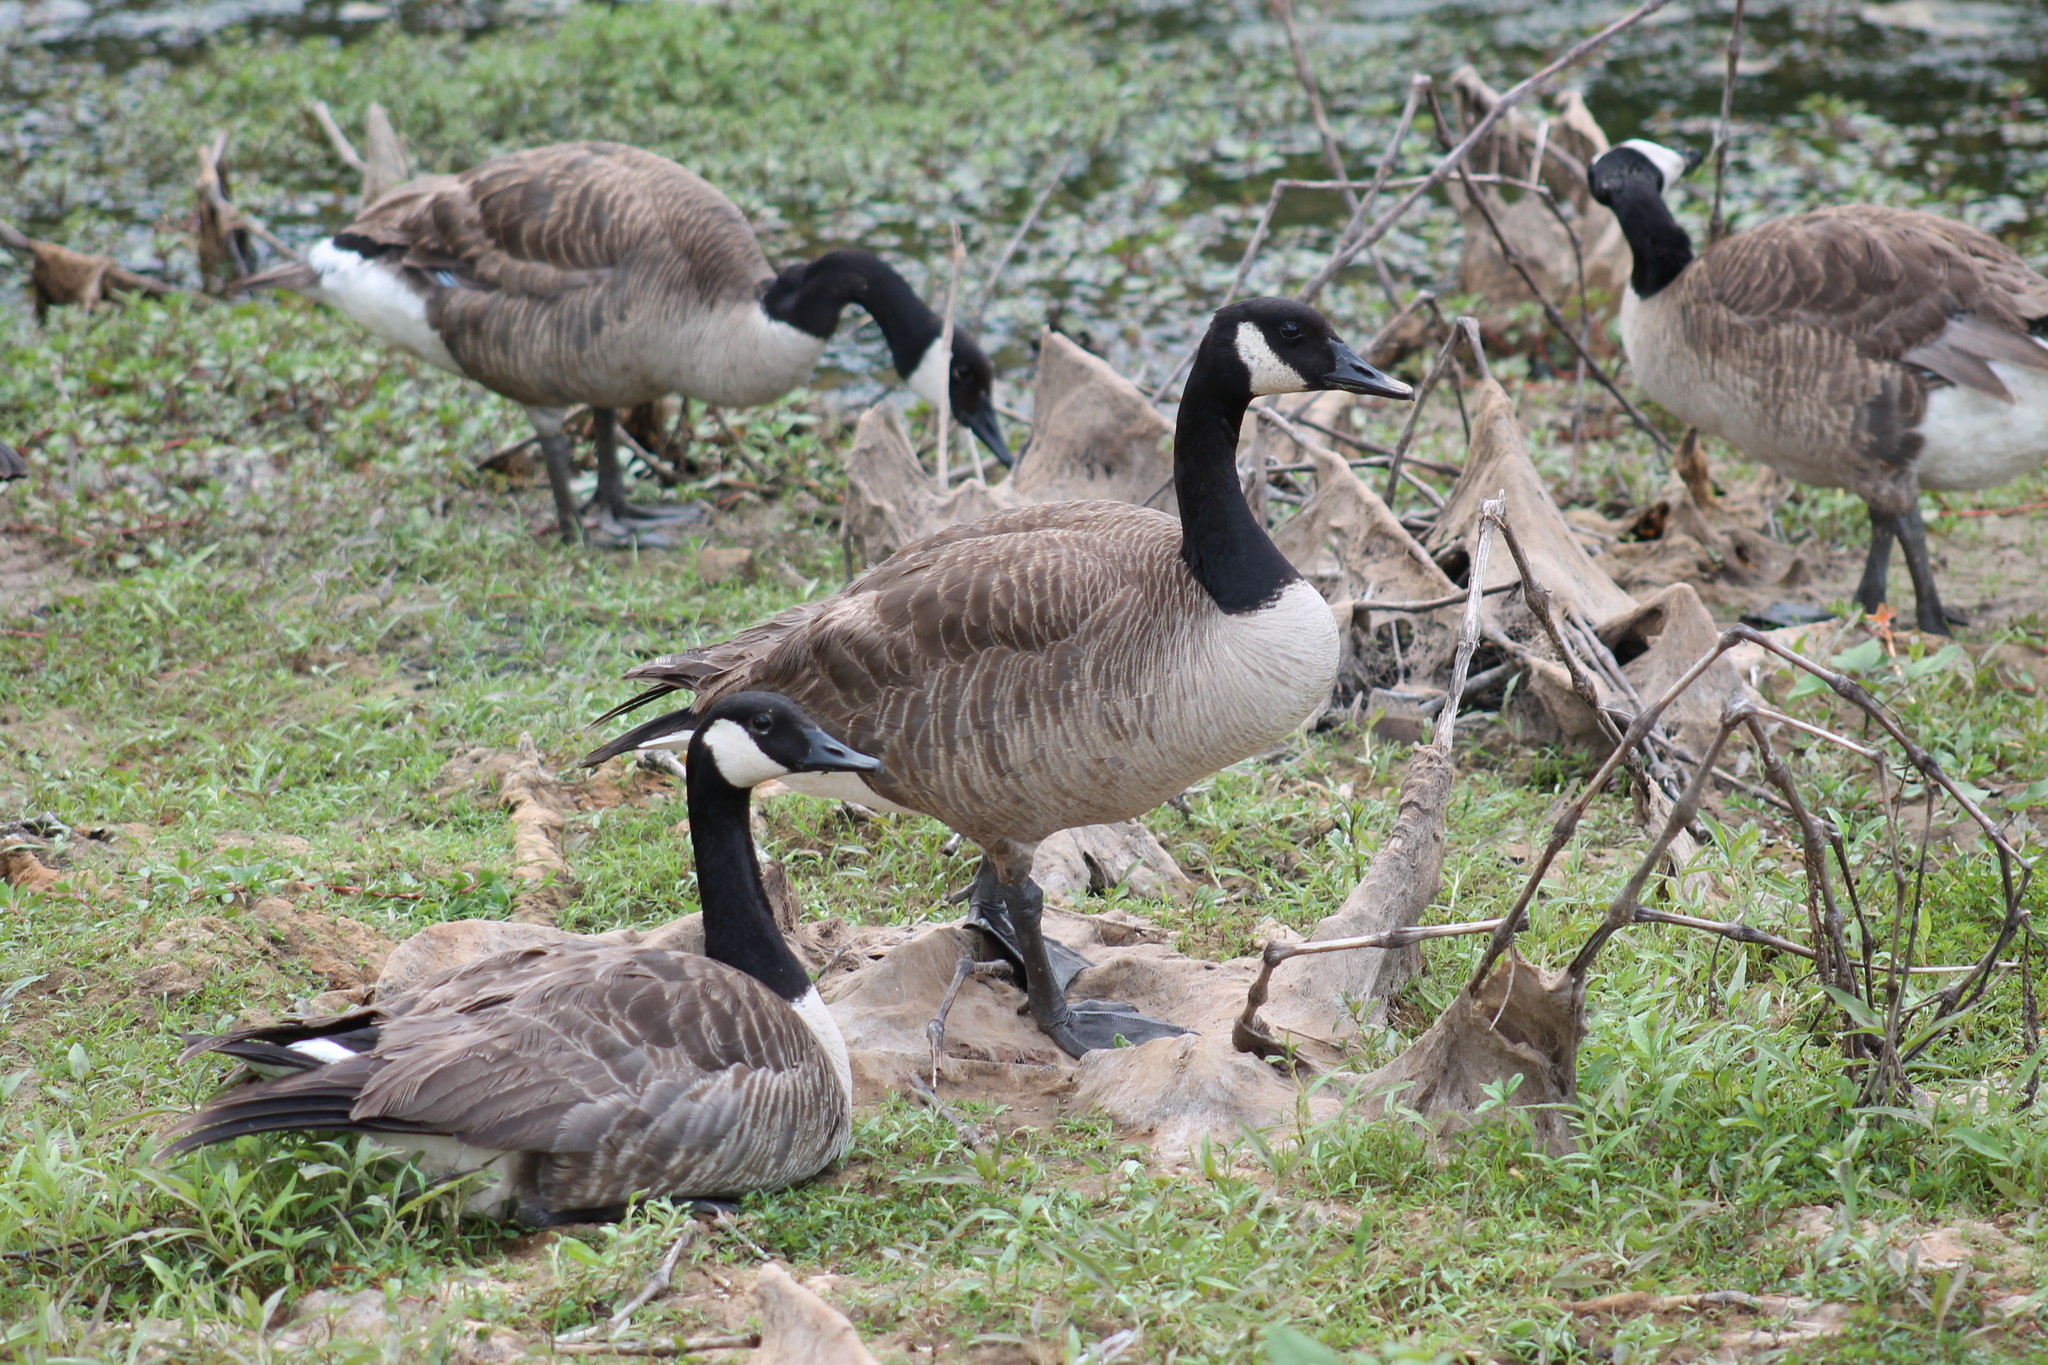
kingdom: Animalia
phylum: Chordata
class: Aves
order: Anseriformes
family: Anatidae
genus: Branta
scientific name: Branta canadensis
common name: Canada goose
